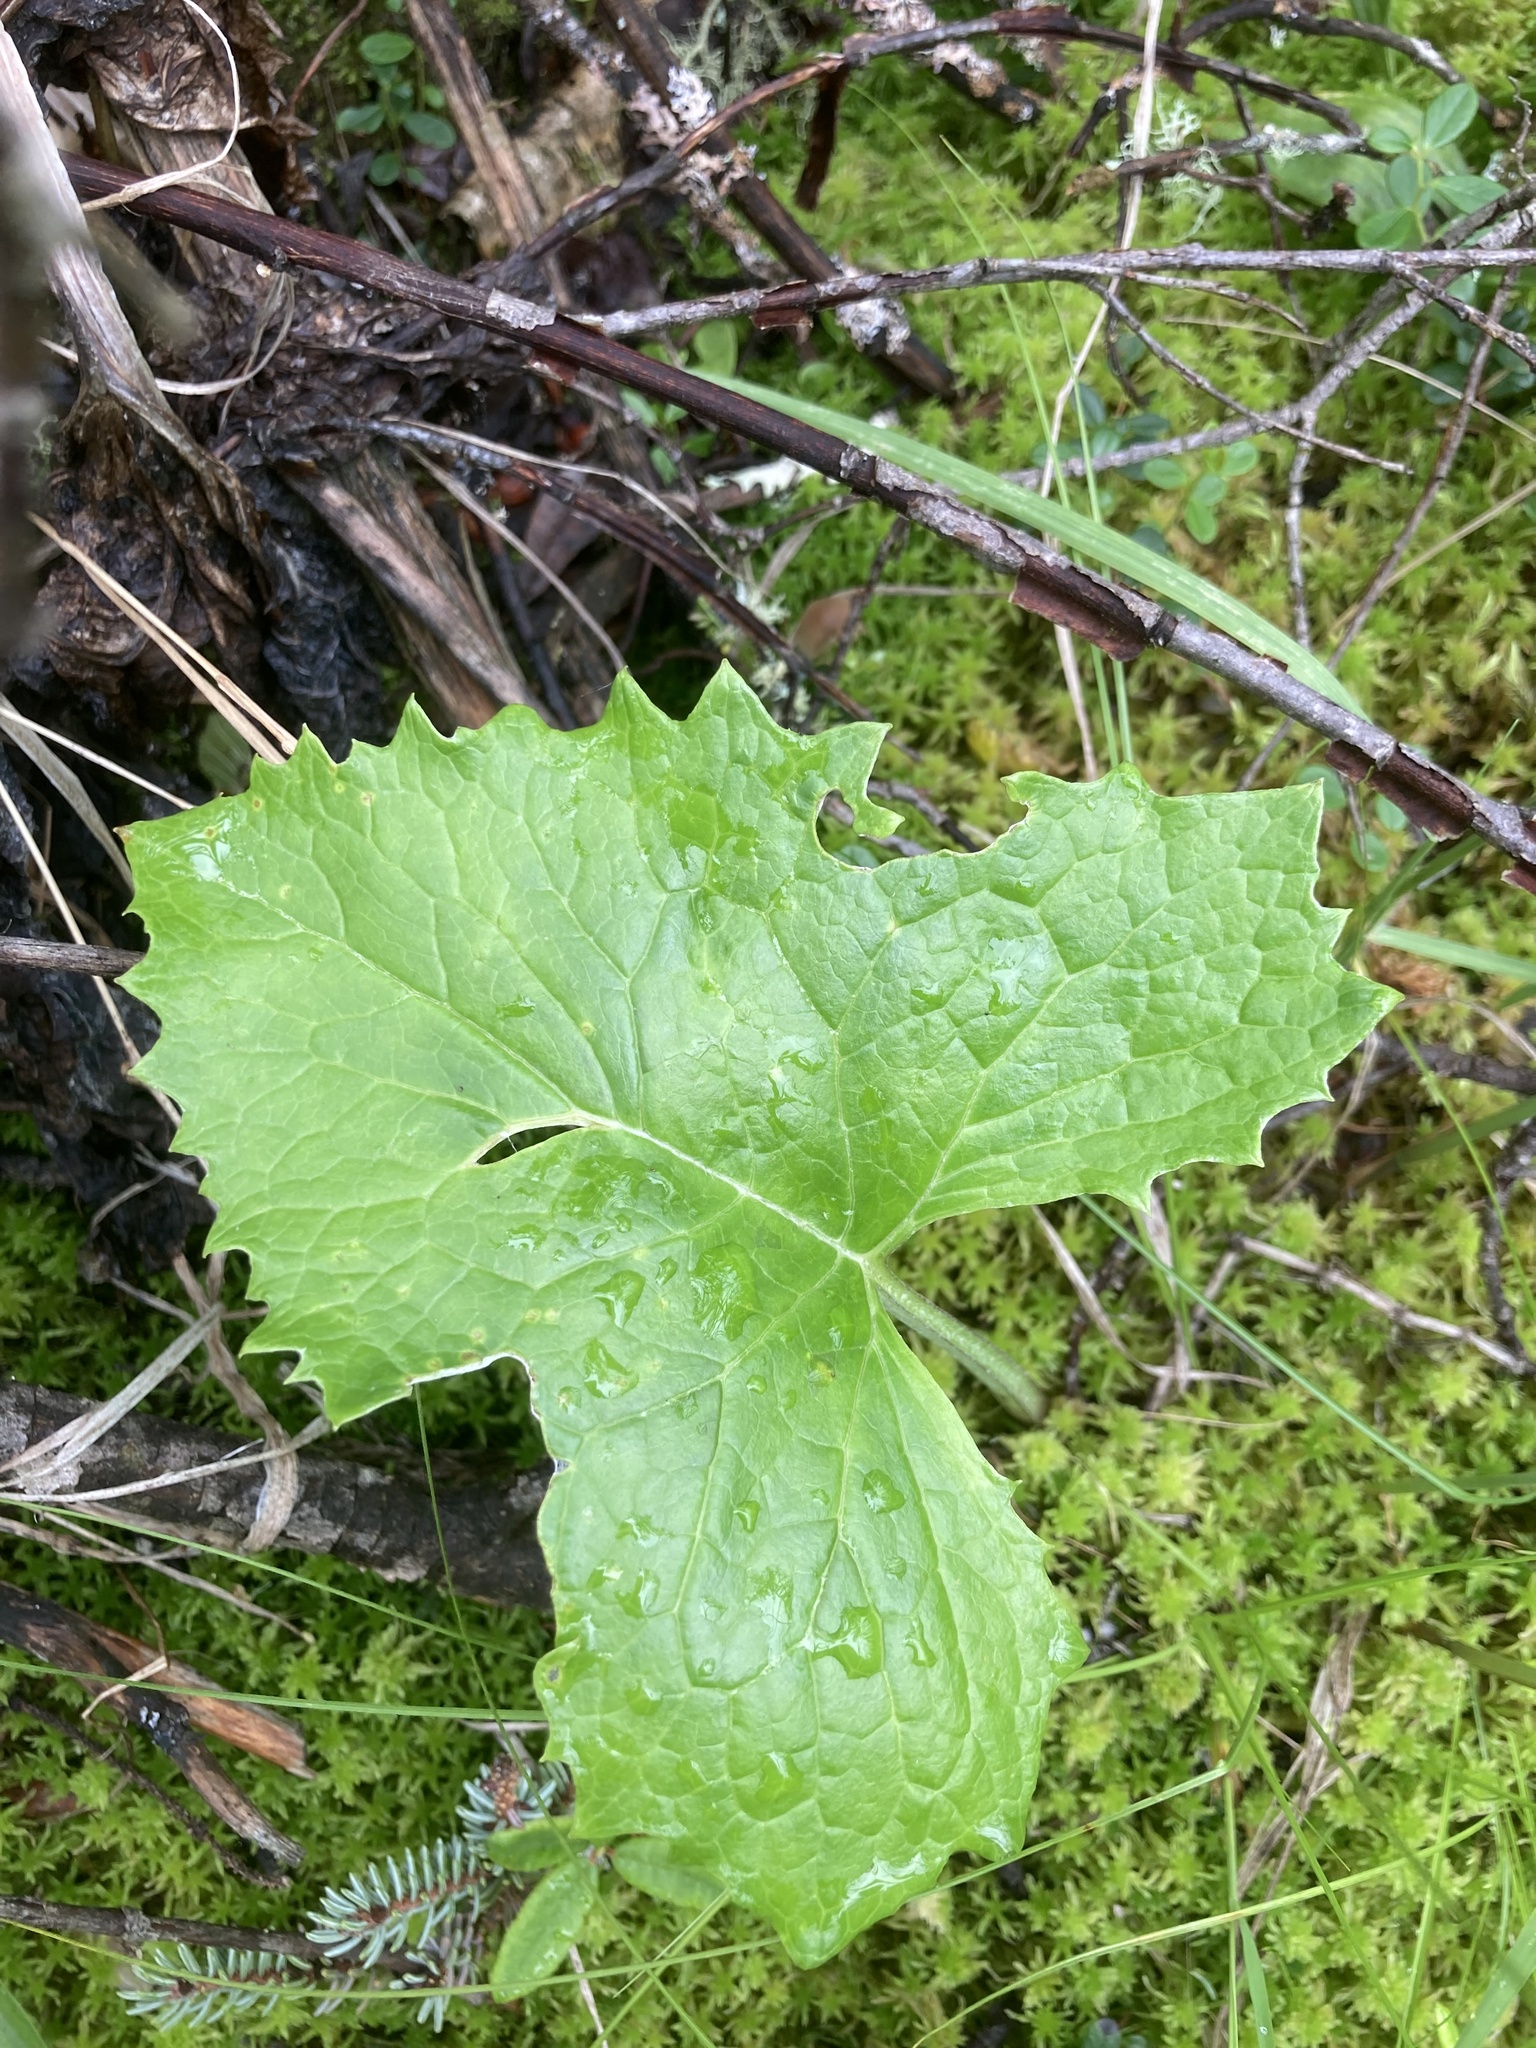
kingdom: Plantae
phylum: Tracheophyta
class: Magnoliopsida
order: Asterales
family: Asteraceae
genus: Petasites
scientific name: Petasites frigidus
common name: Arctic butterbur
